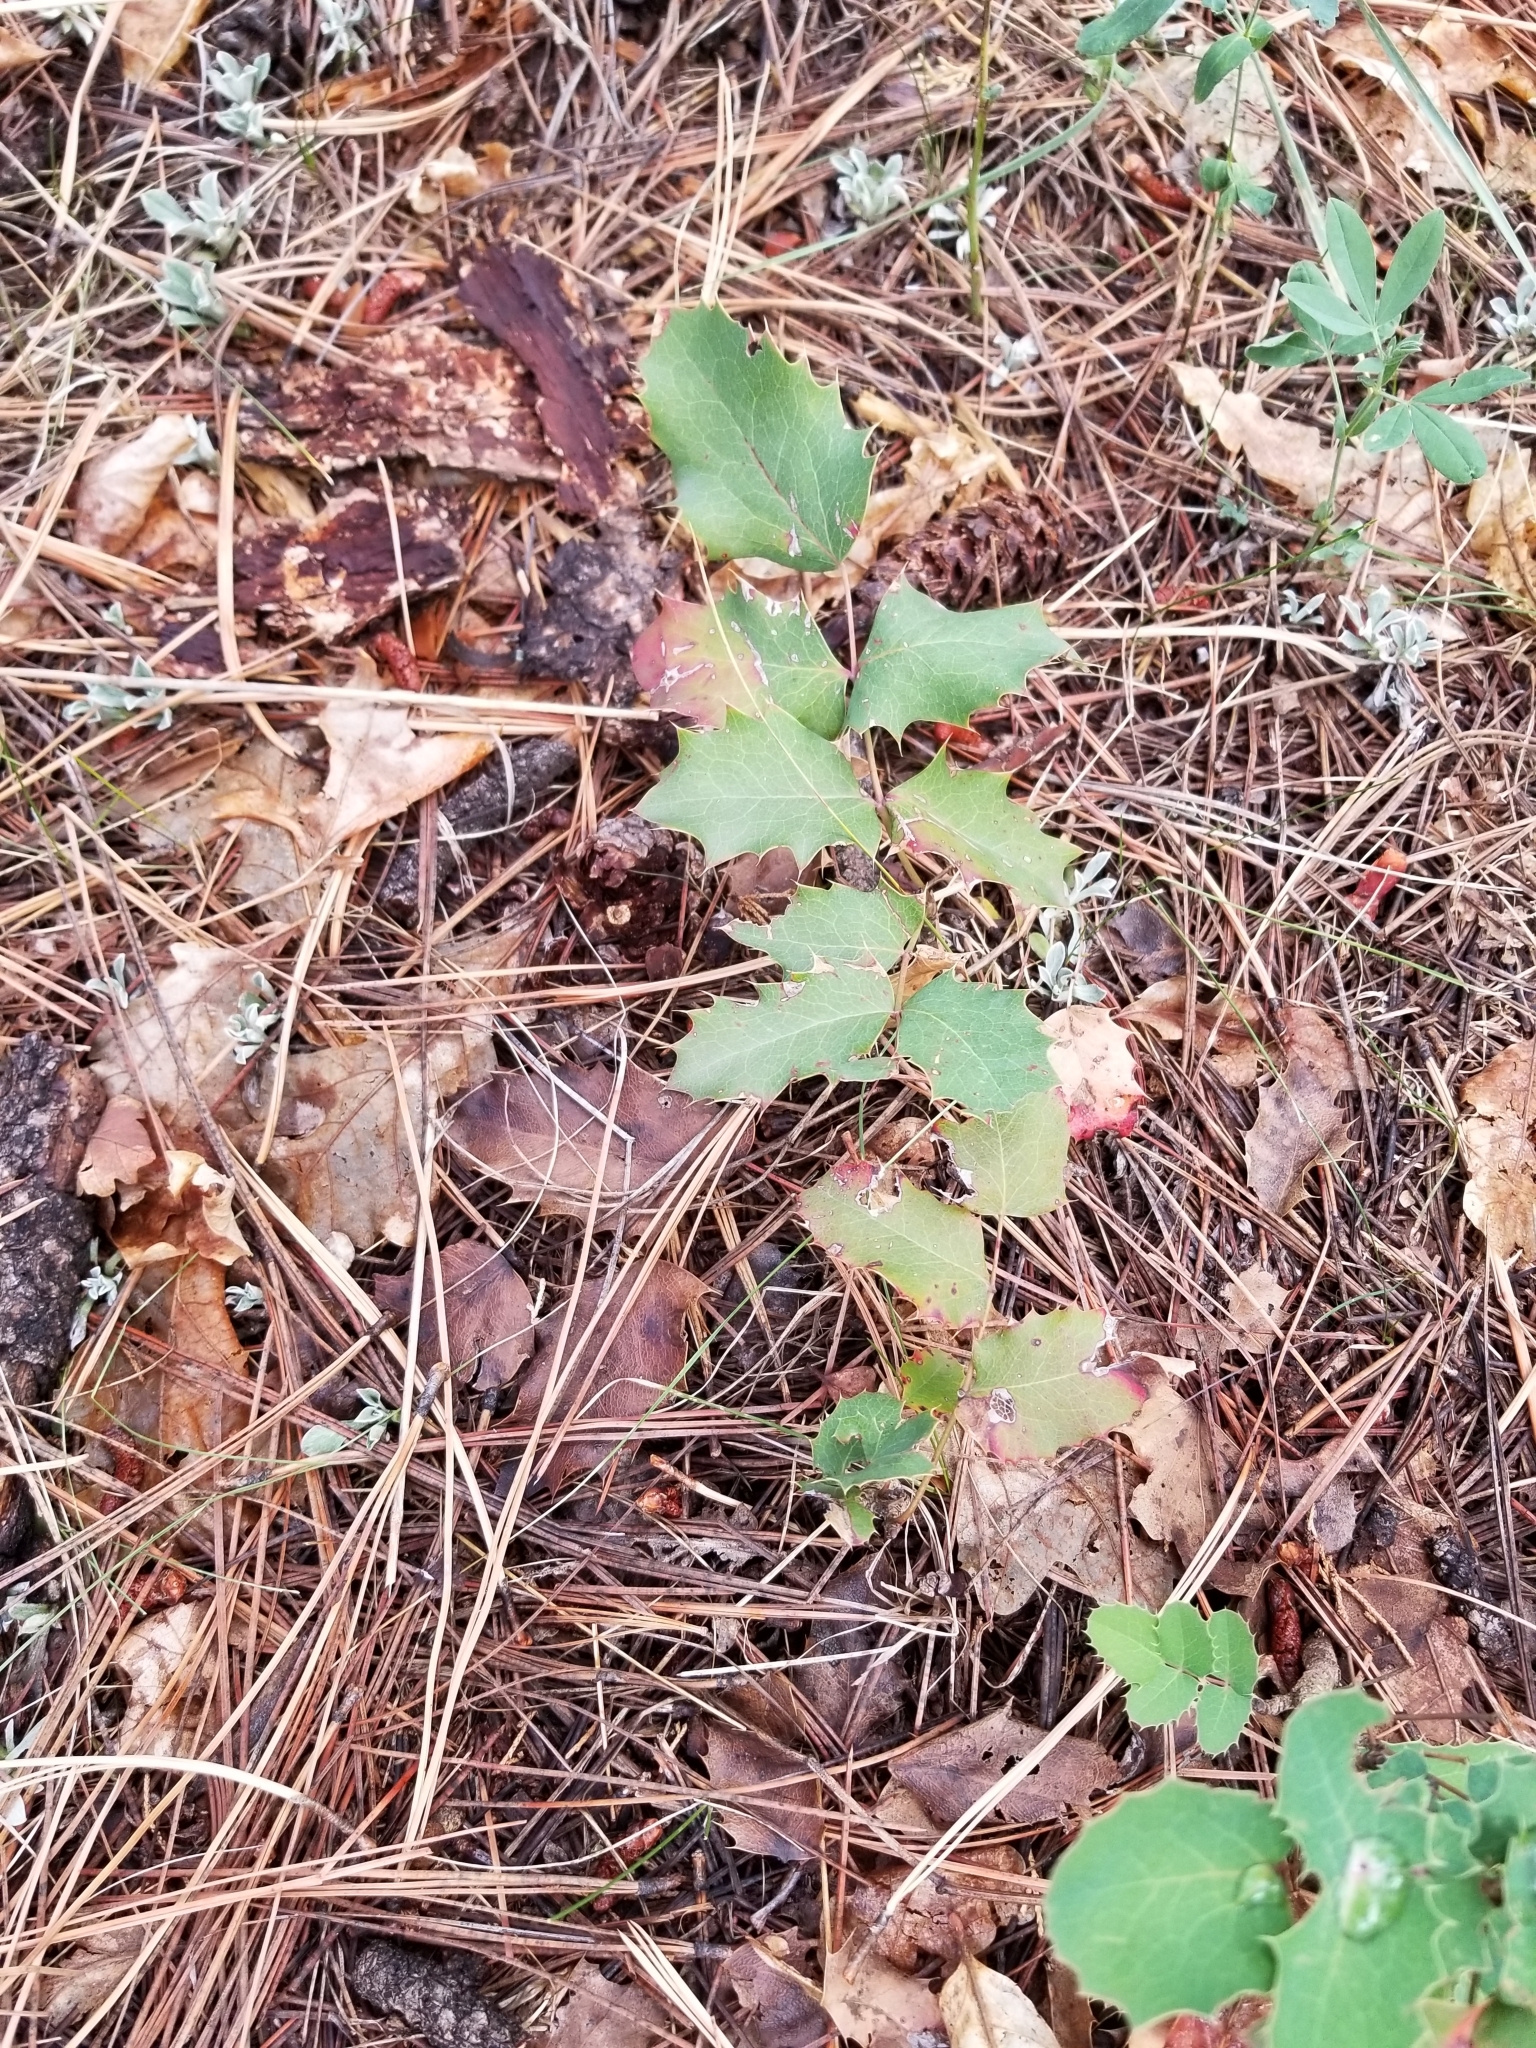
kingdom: Plantae
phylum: Tracheophyta
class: Magnoliopsida
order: Ranunculales
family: Berberidaceae
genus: Mahonia
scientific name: Mahonia repens
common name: Creeping oregon-grape
